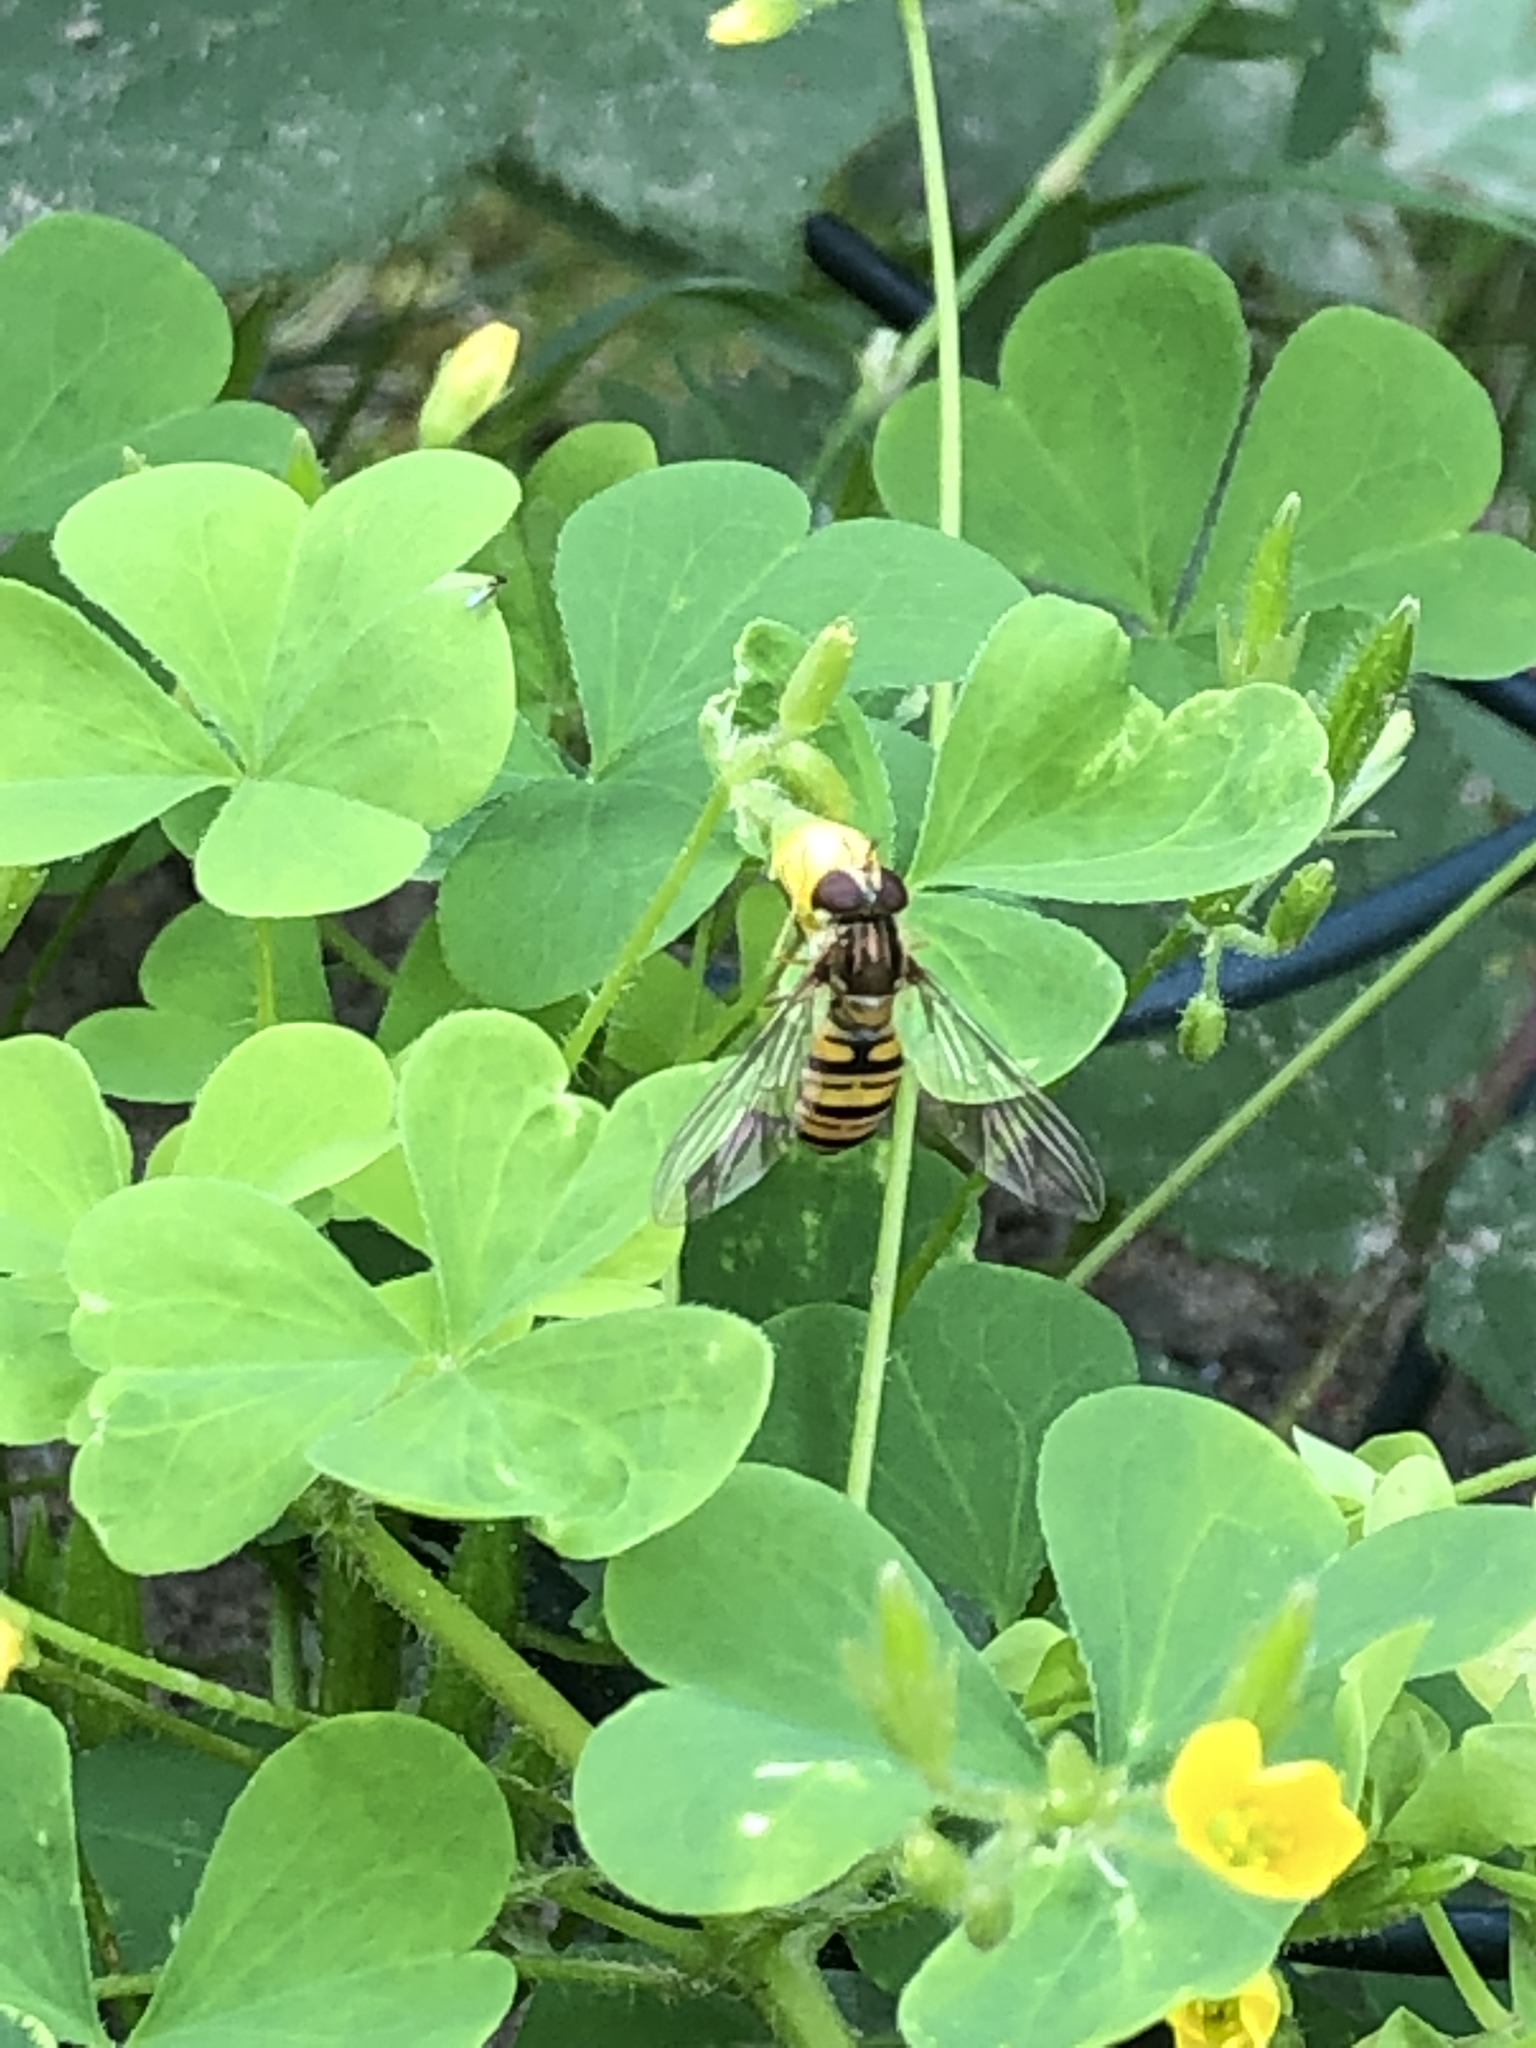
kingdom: Animalia
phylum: Arthropoda
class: Insecta
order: Diptera
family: Syrphidae
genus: Episyrphus
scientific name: Episyrphus balteatus
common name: Marmalade hoverfly
